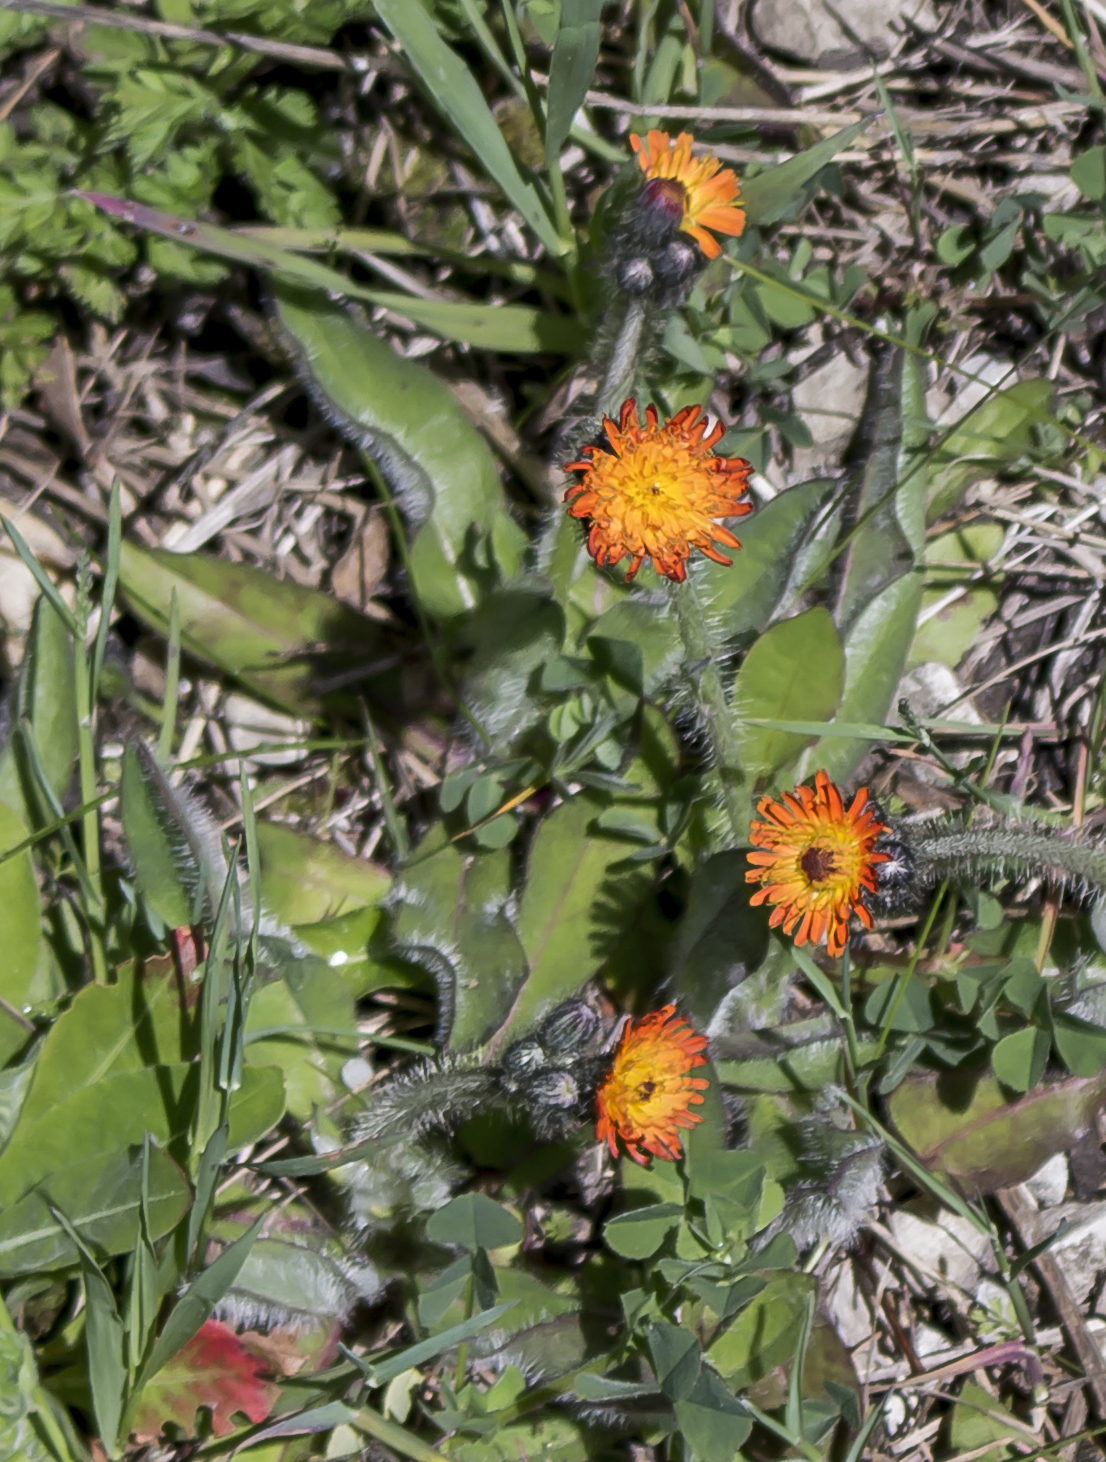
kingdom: Plantae
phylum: Tracheophyta
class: Magnoliopsida
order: Asterales
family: Asteraceae
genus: Pilosella
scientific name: Pilosella aurantiaca
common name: Fox-and-cubs
